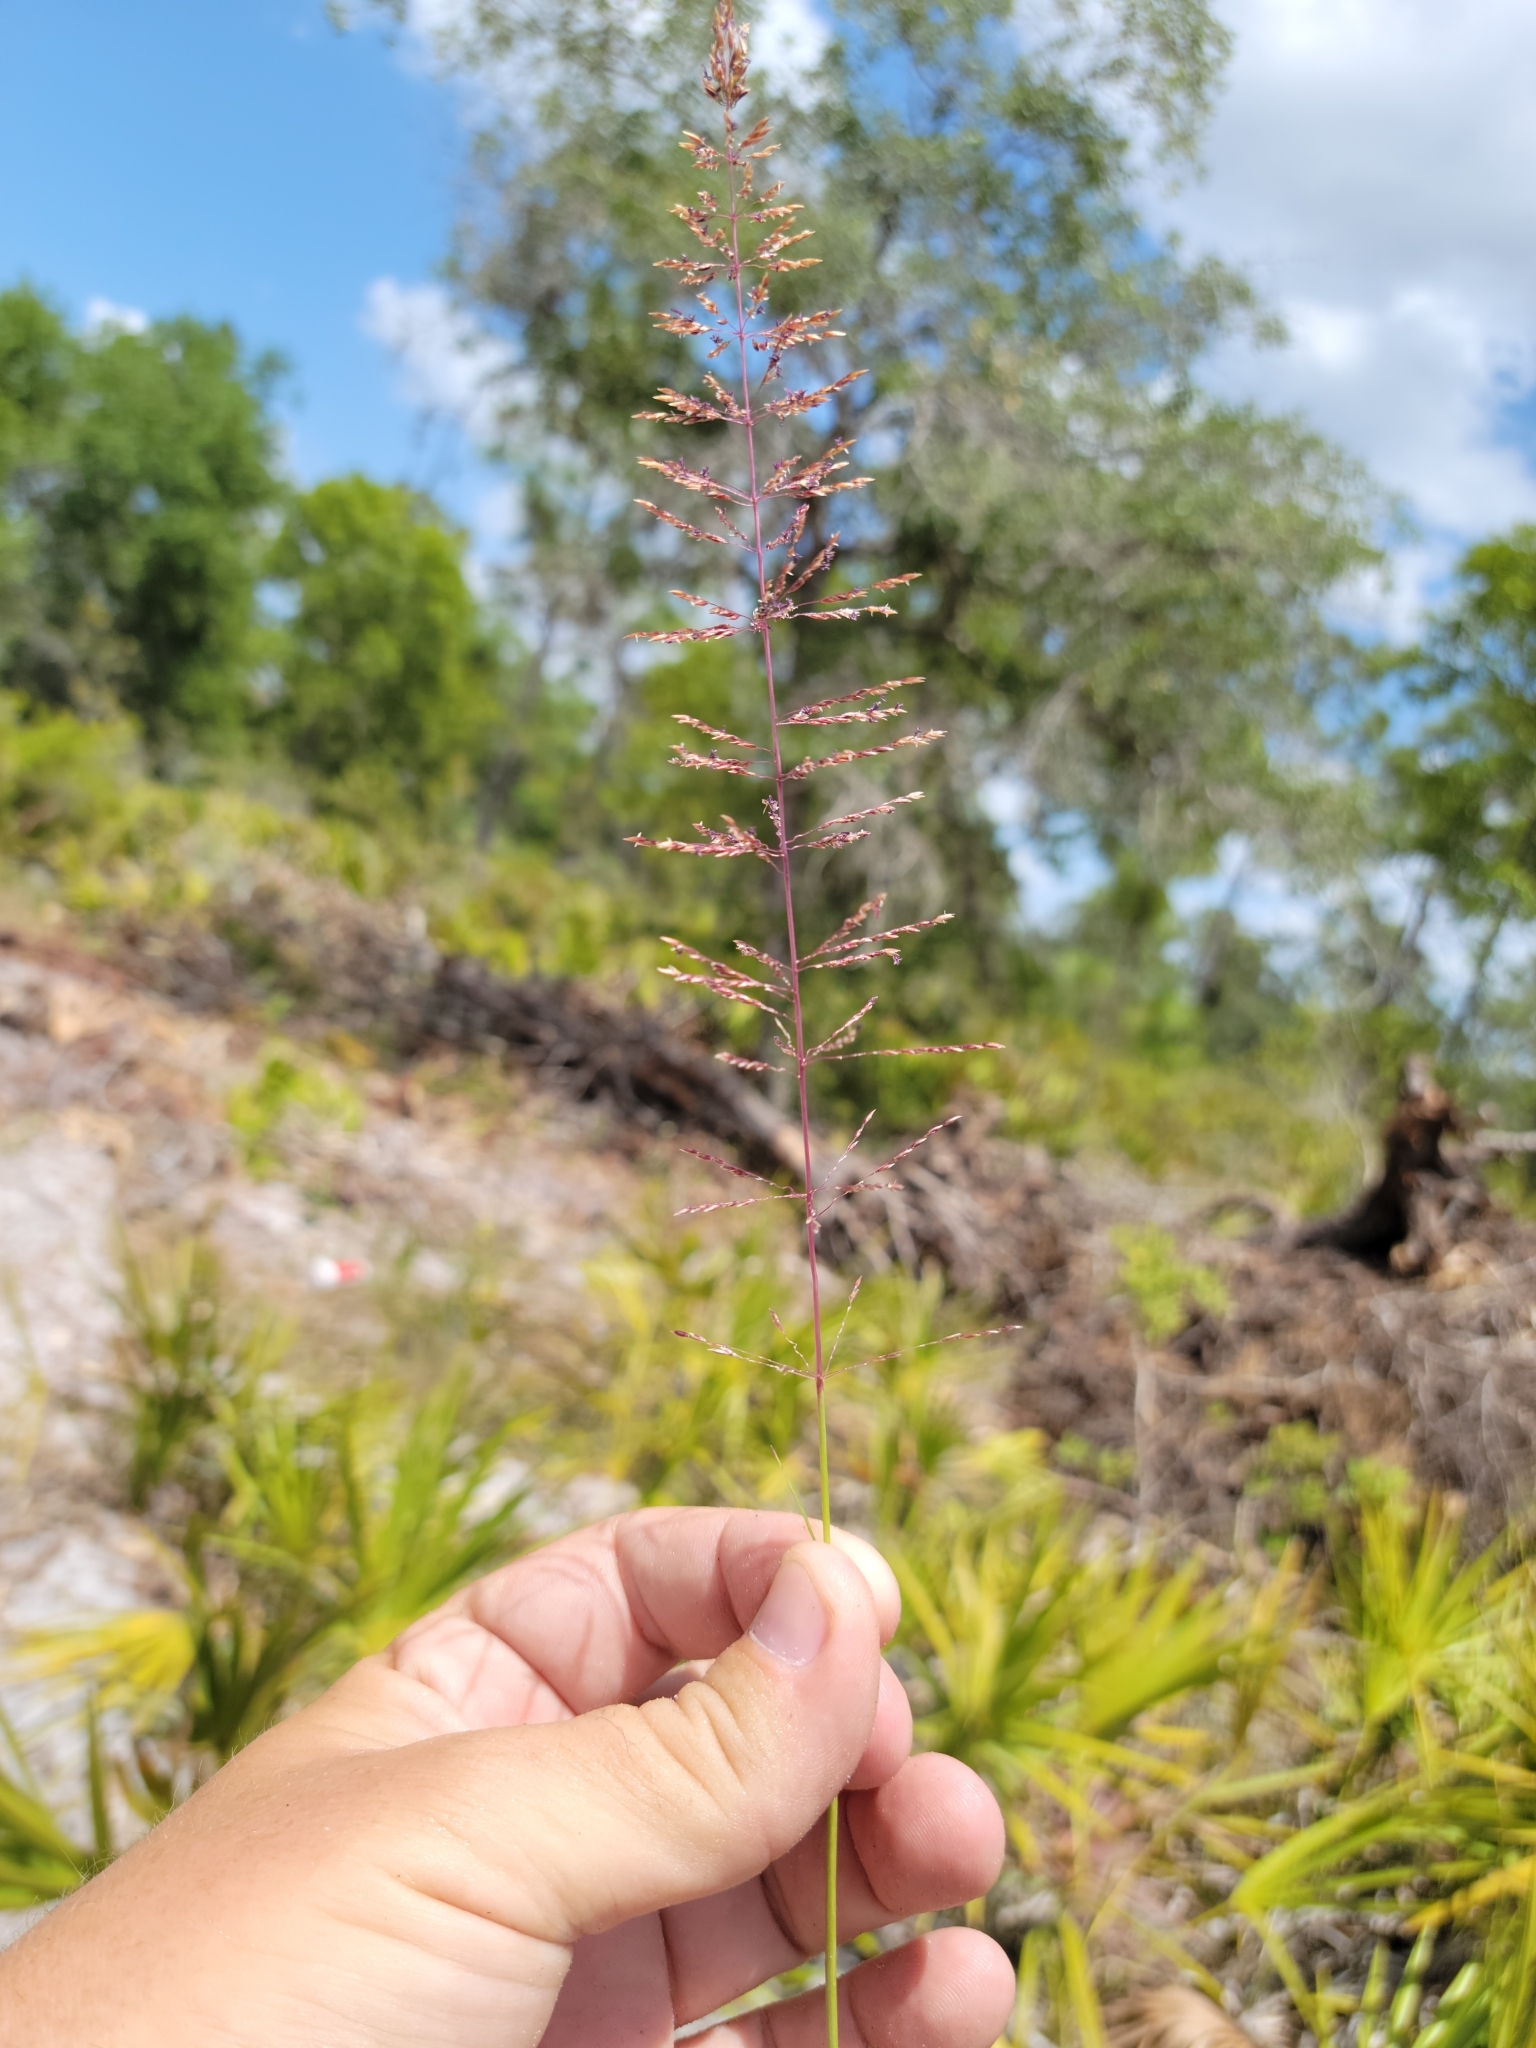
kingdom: Plantae
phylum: Tracheophyta
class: Liliopsida
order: Poales
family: Poaceae
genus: Sporobolus
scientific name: Sporobolus junceus
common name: Lizard grass
